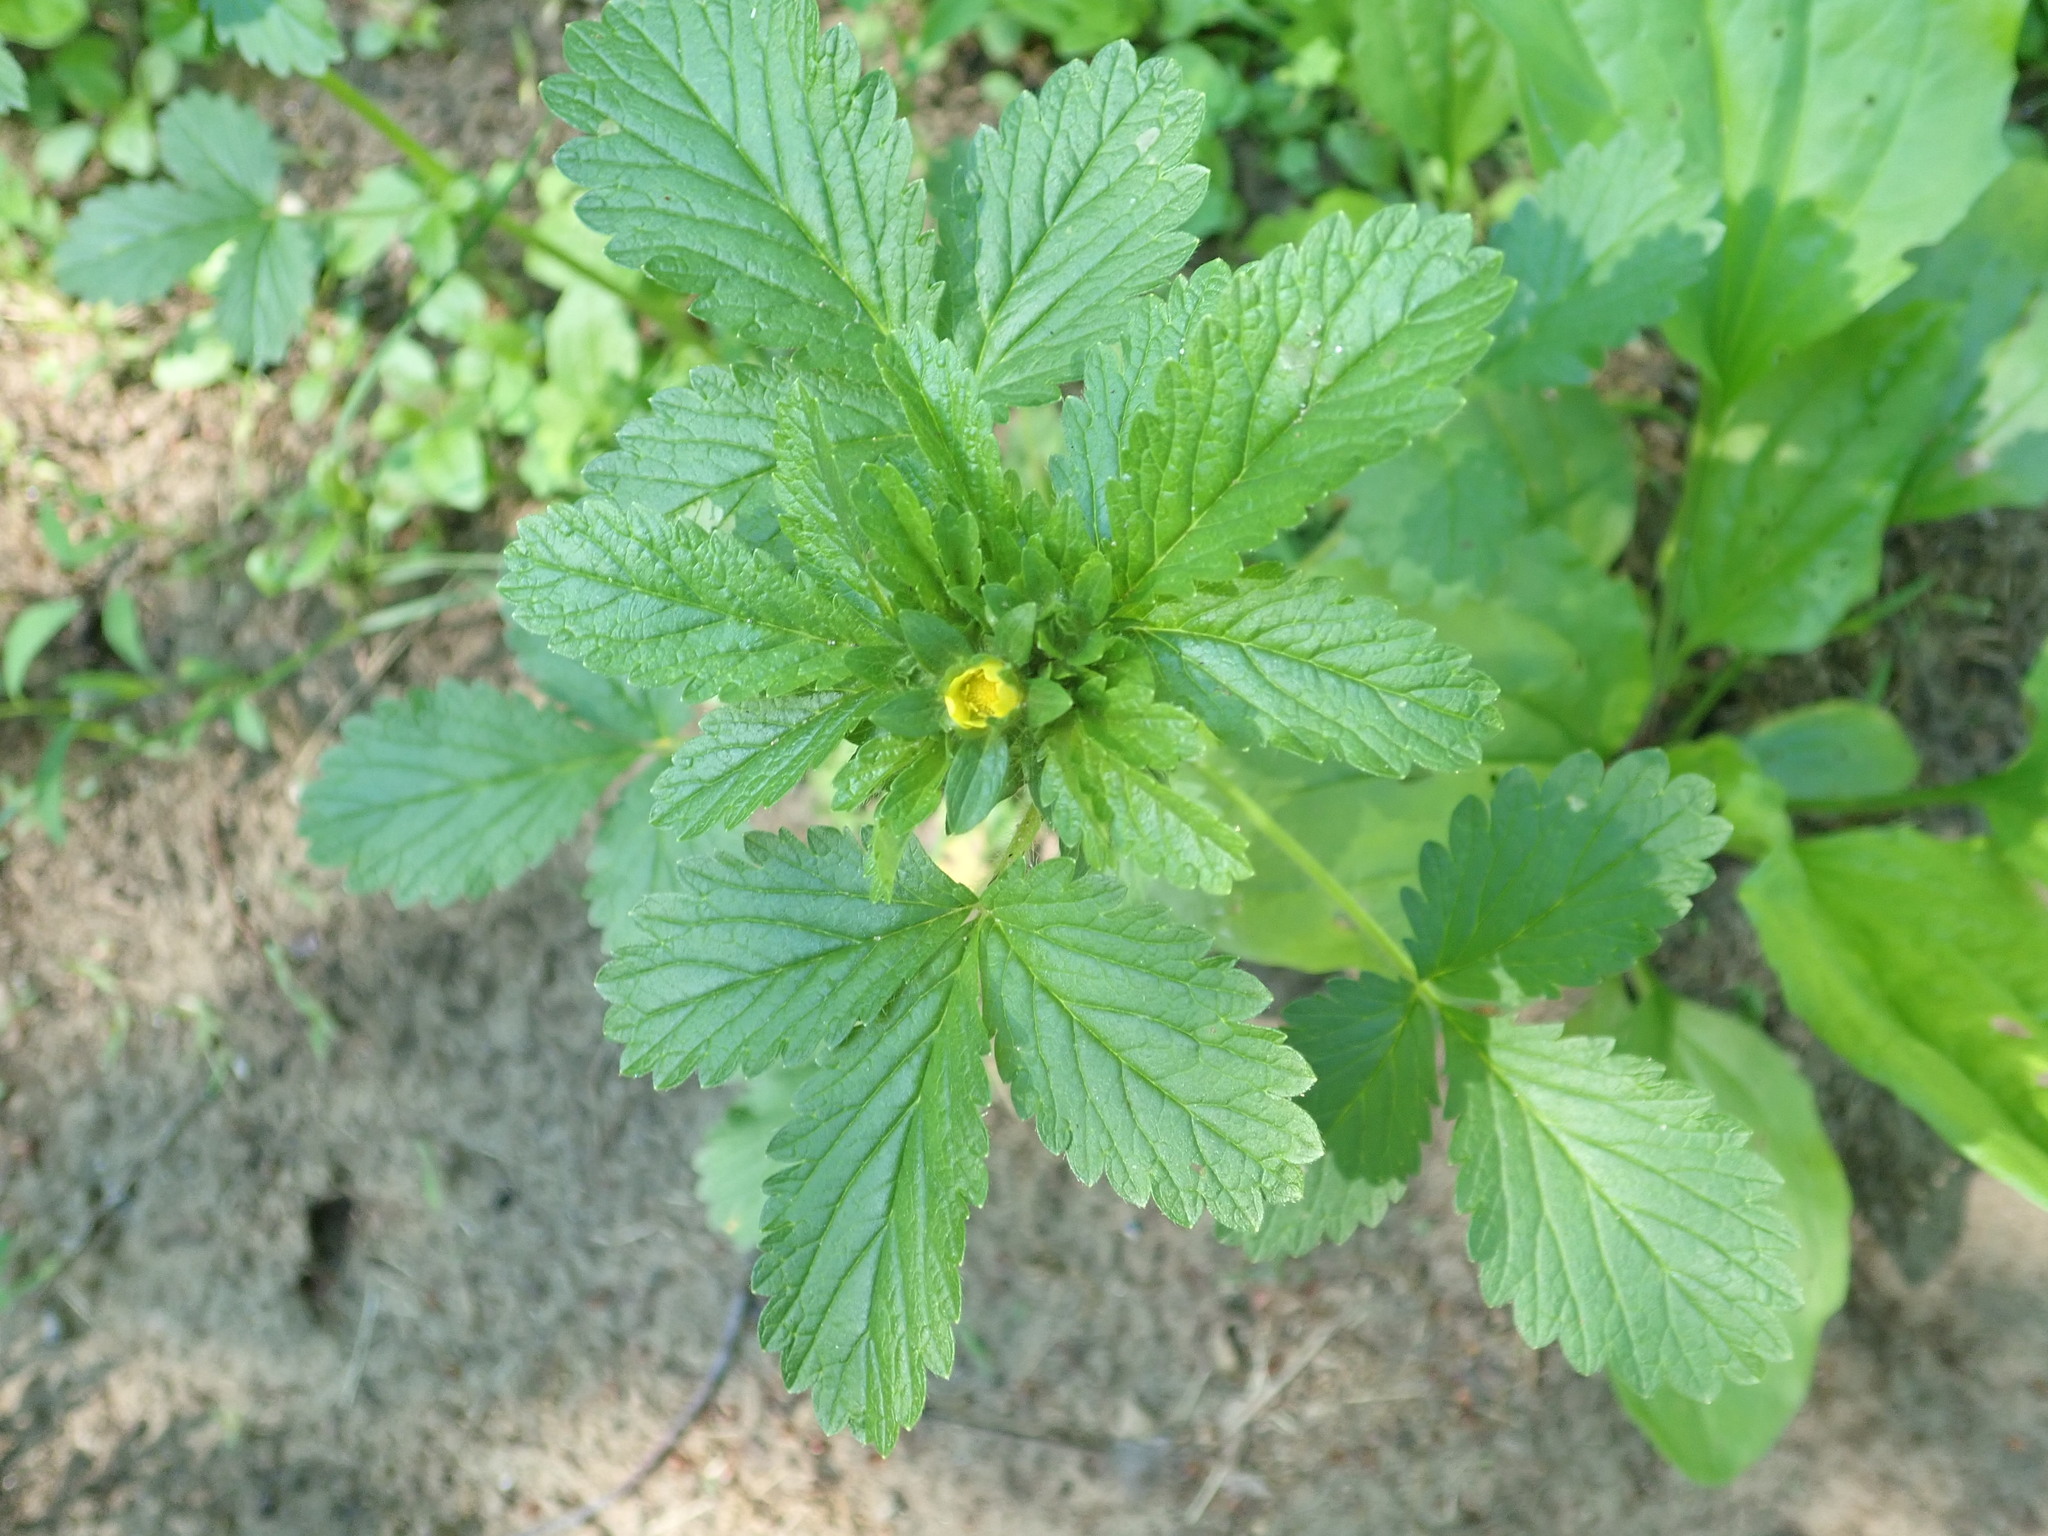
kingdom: Plantae
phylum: Tracheophyta
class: Magnoliopsida
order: Rosales
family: Rosaceae
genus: Potentilla
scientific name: Potentilla norvegica
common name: Ternate-leaved cinquefoil
